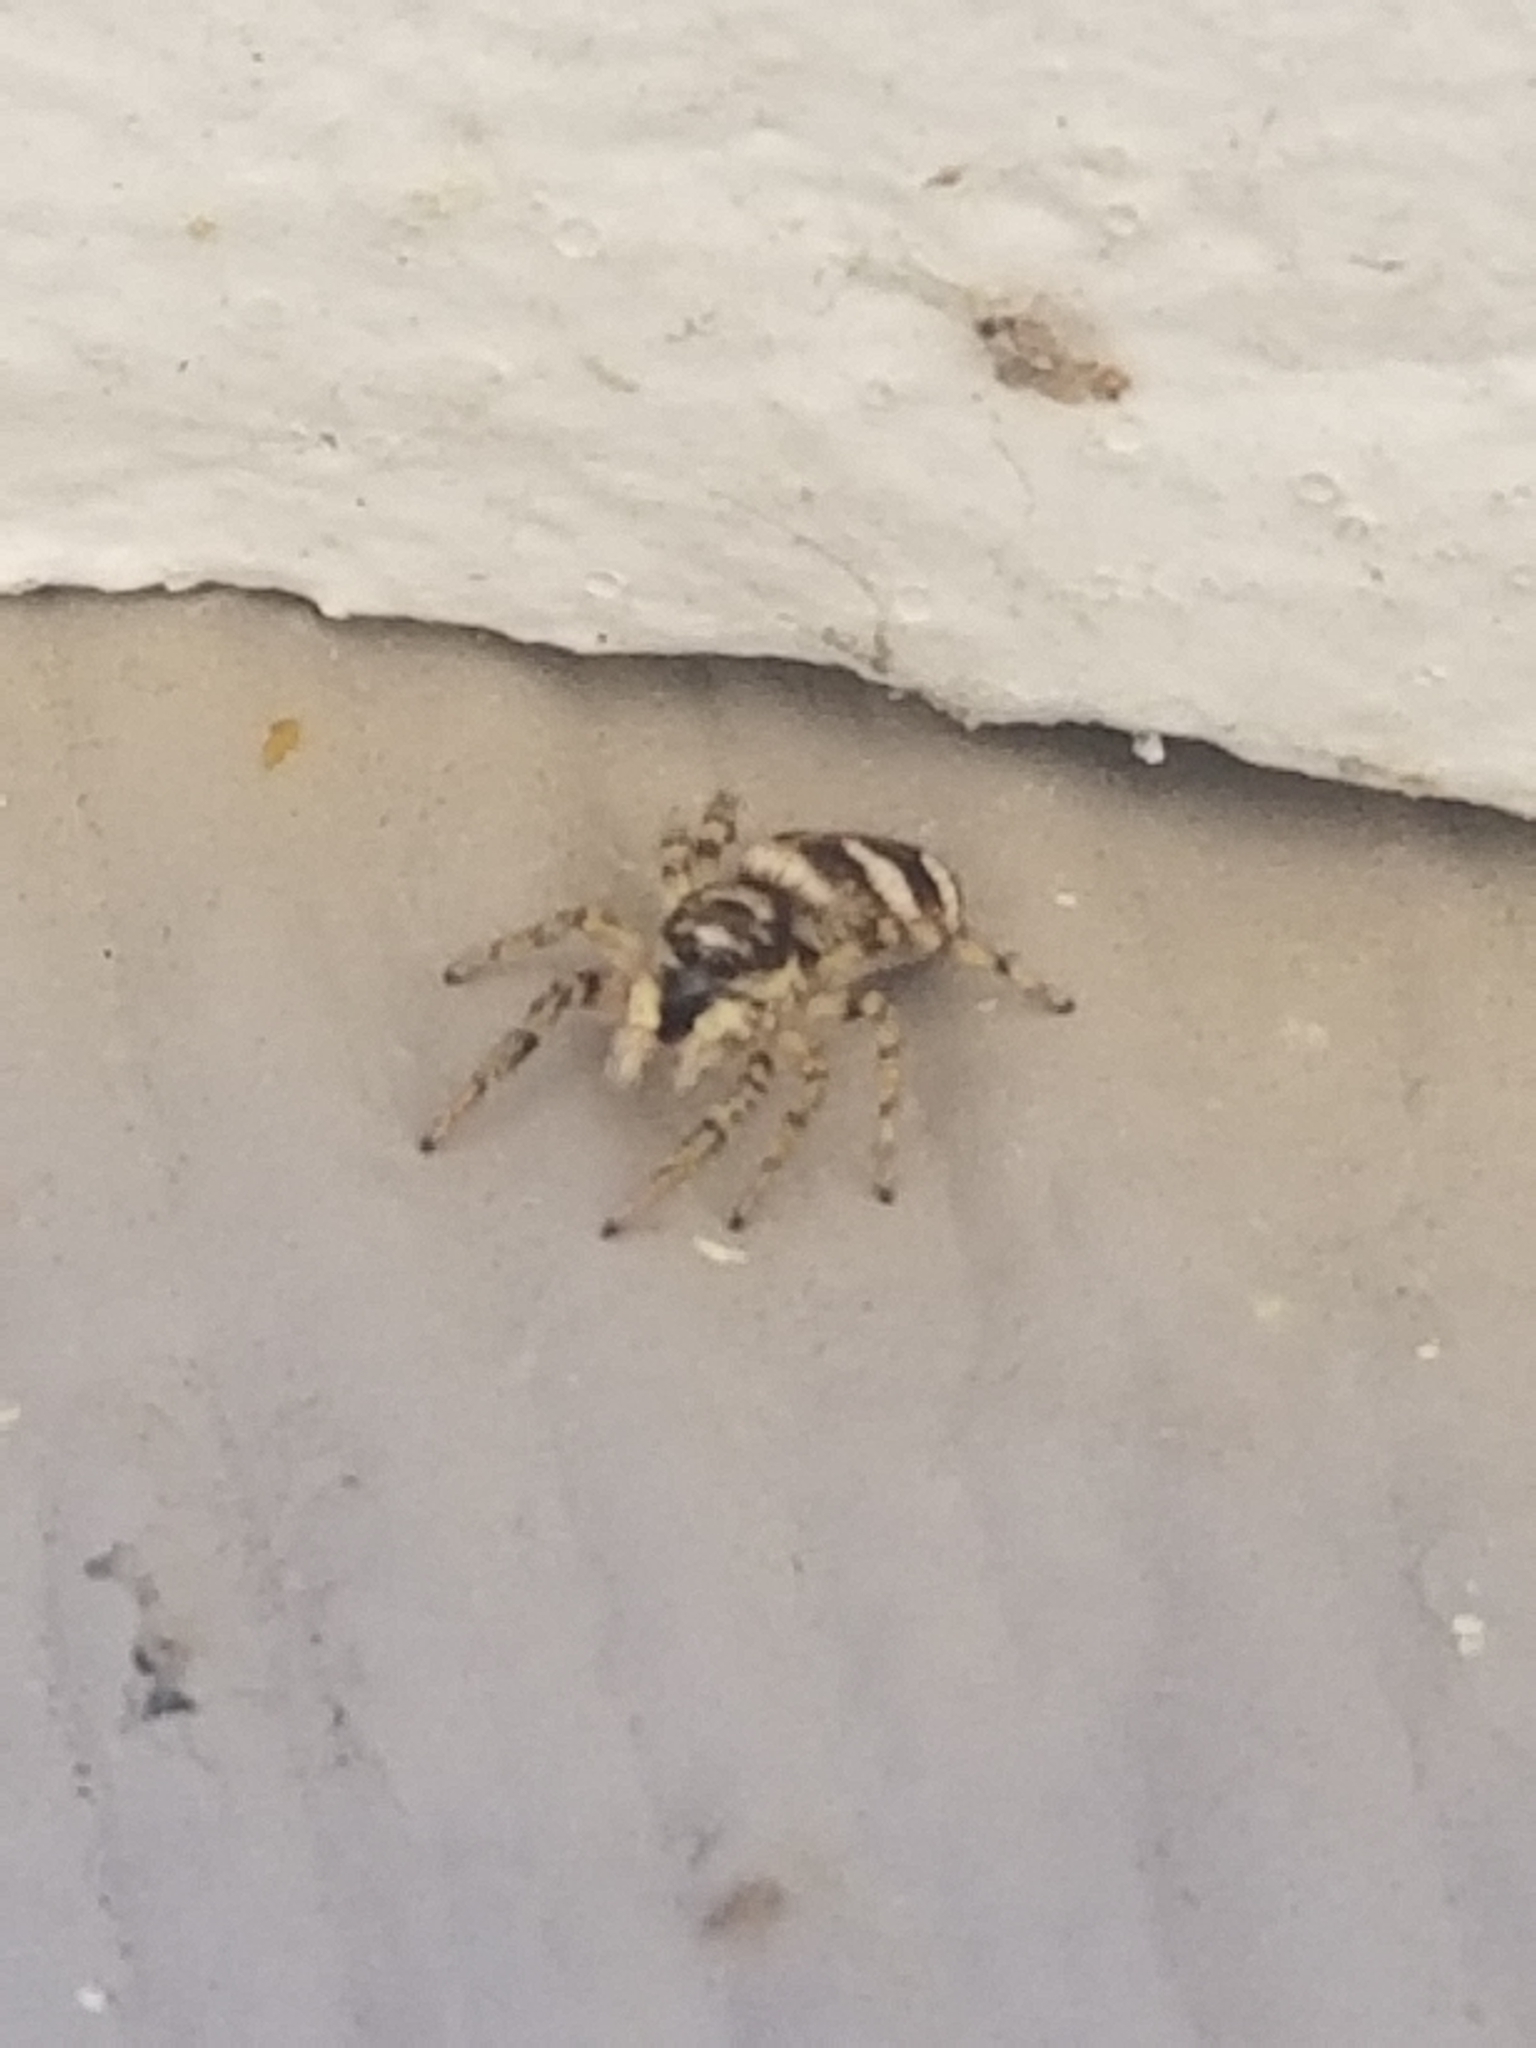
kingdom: Animalia
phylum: Arthropoda
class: Arachnida
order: Araneae
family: Salticidae
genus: Salticus
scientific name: Salticus scenicus
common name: Zebra jumper
